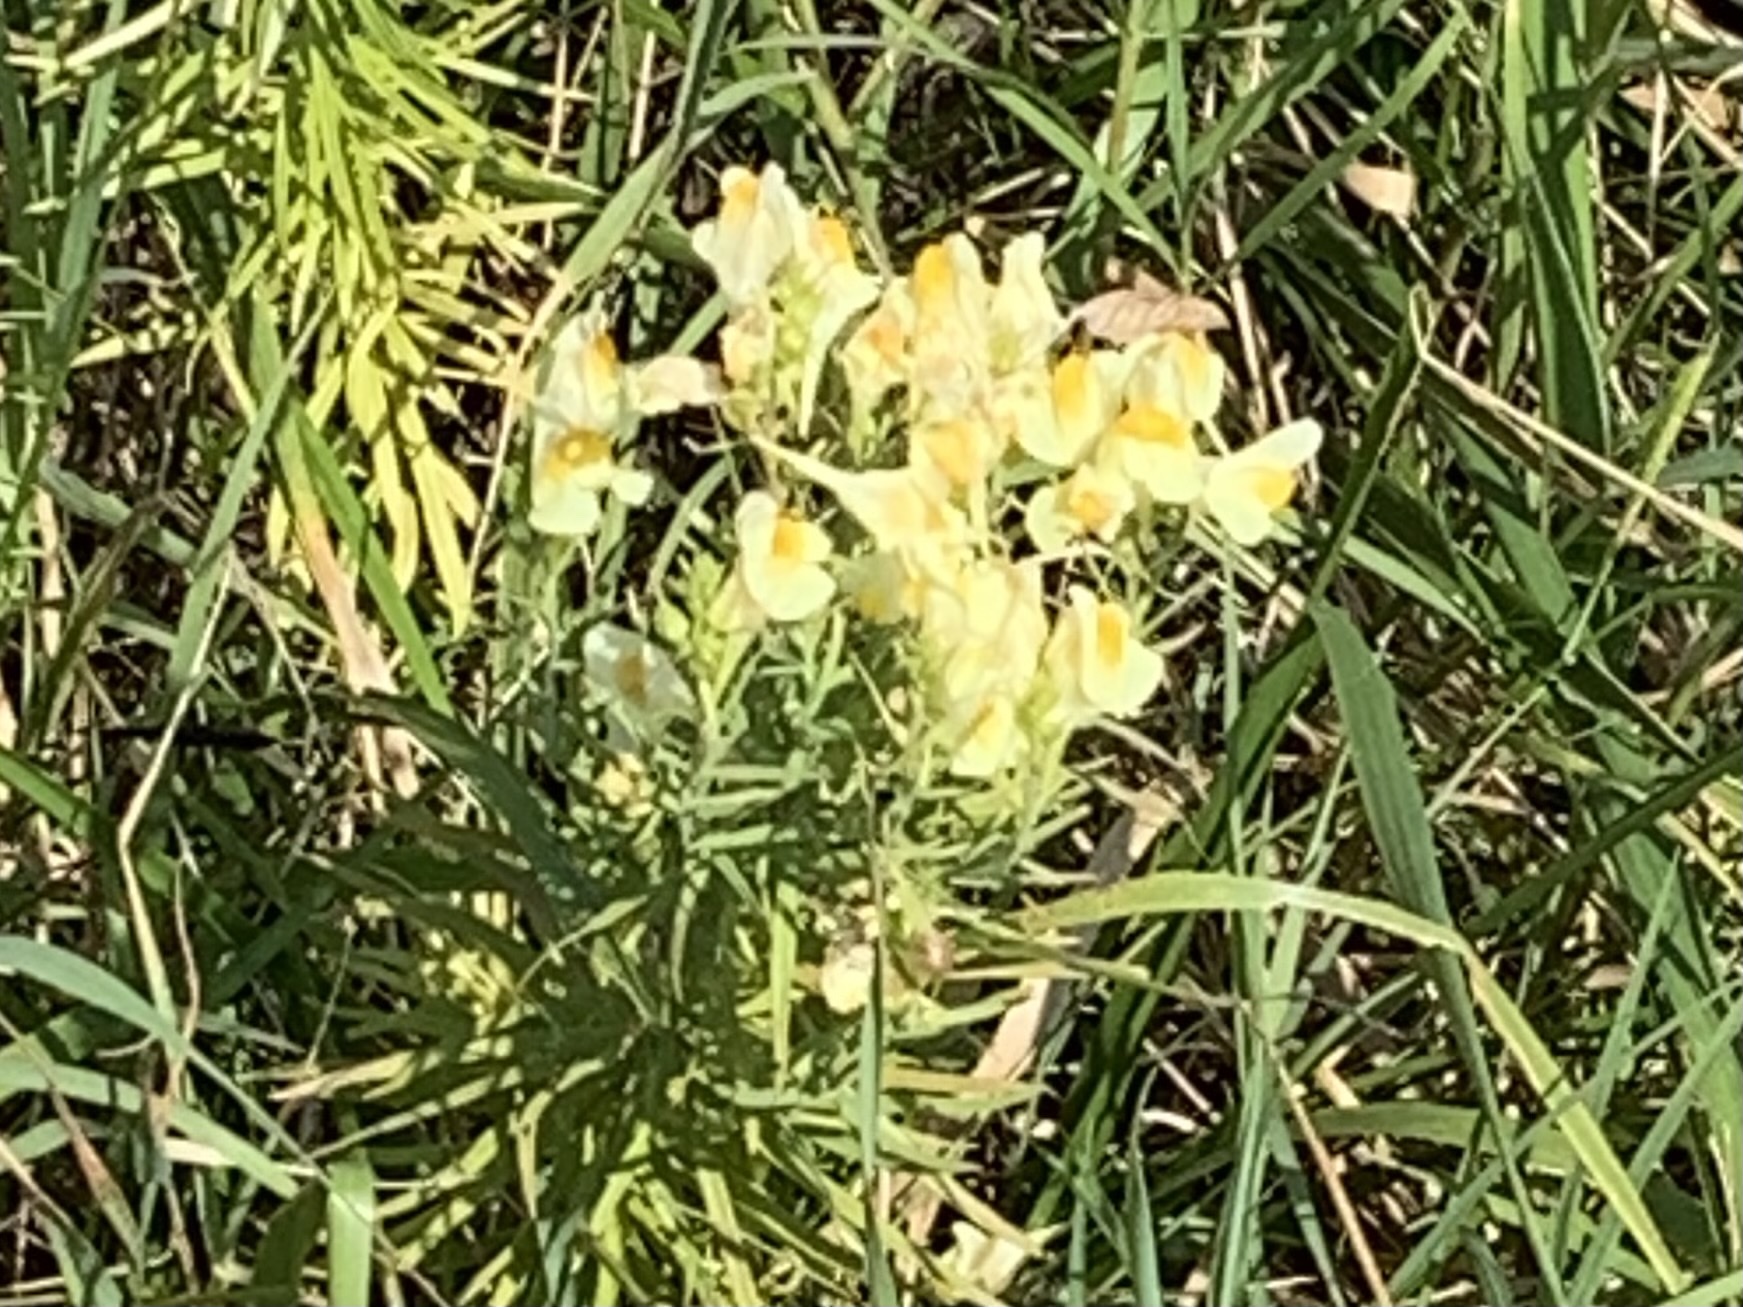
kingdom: Plantae
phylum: Tracheophyta
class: Magnoliopsida
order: Lamiales
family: Plantaginaceae
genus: Linaria
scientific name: Linaria vulgaris
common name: Butter and eggs
